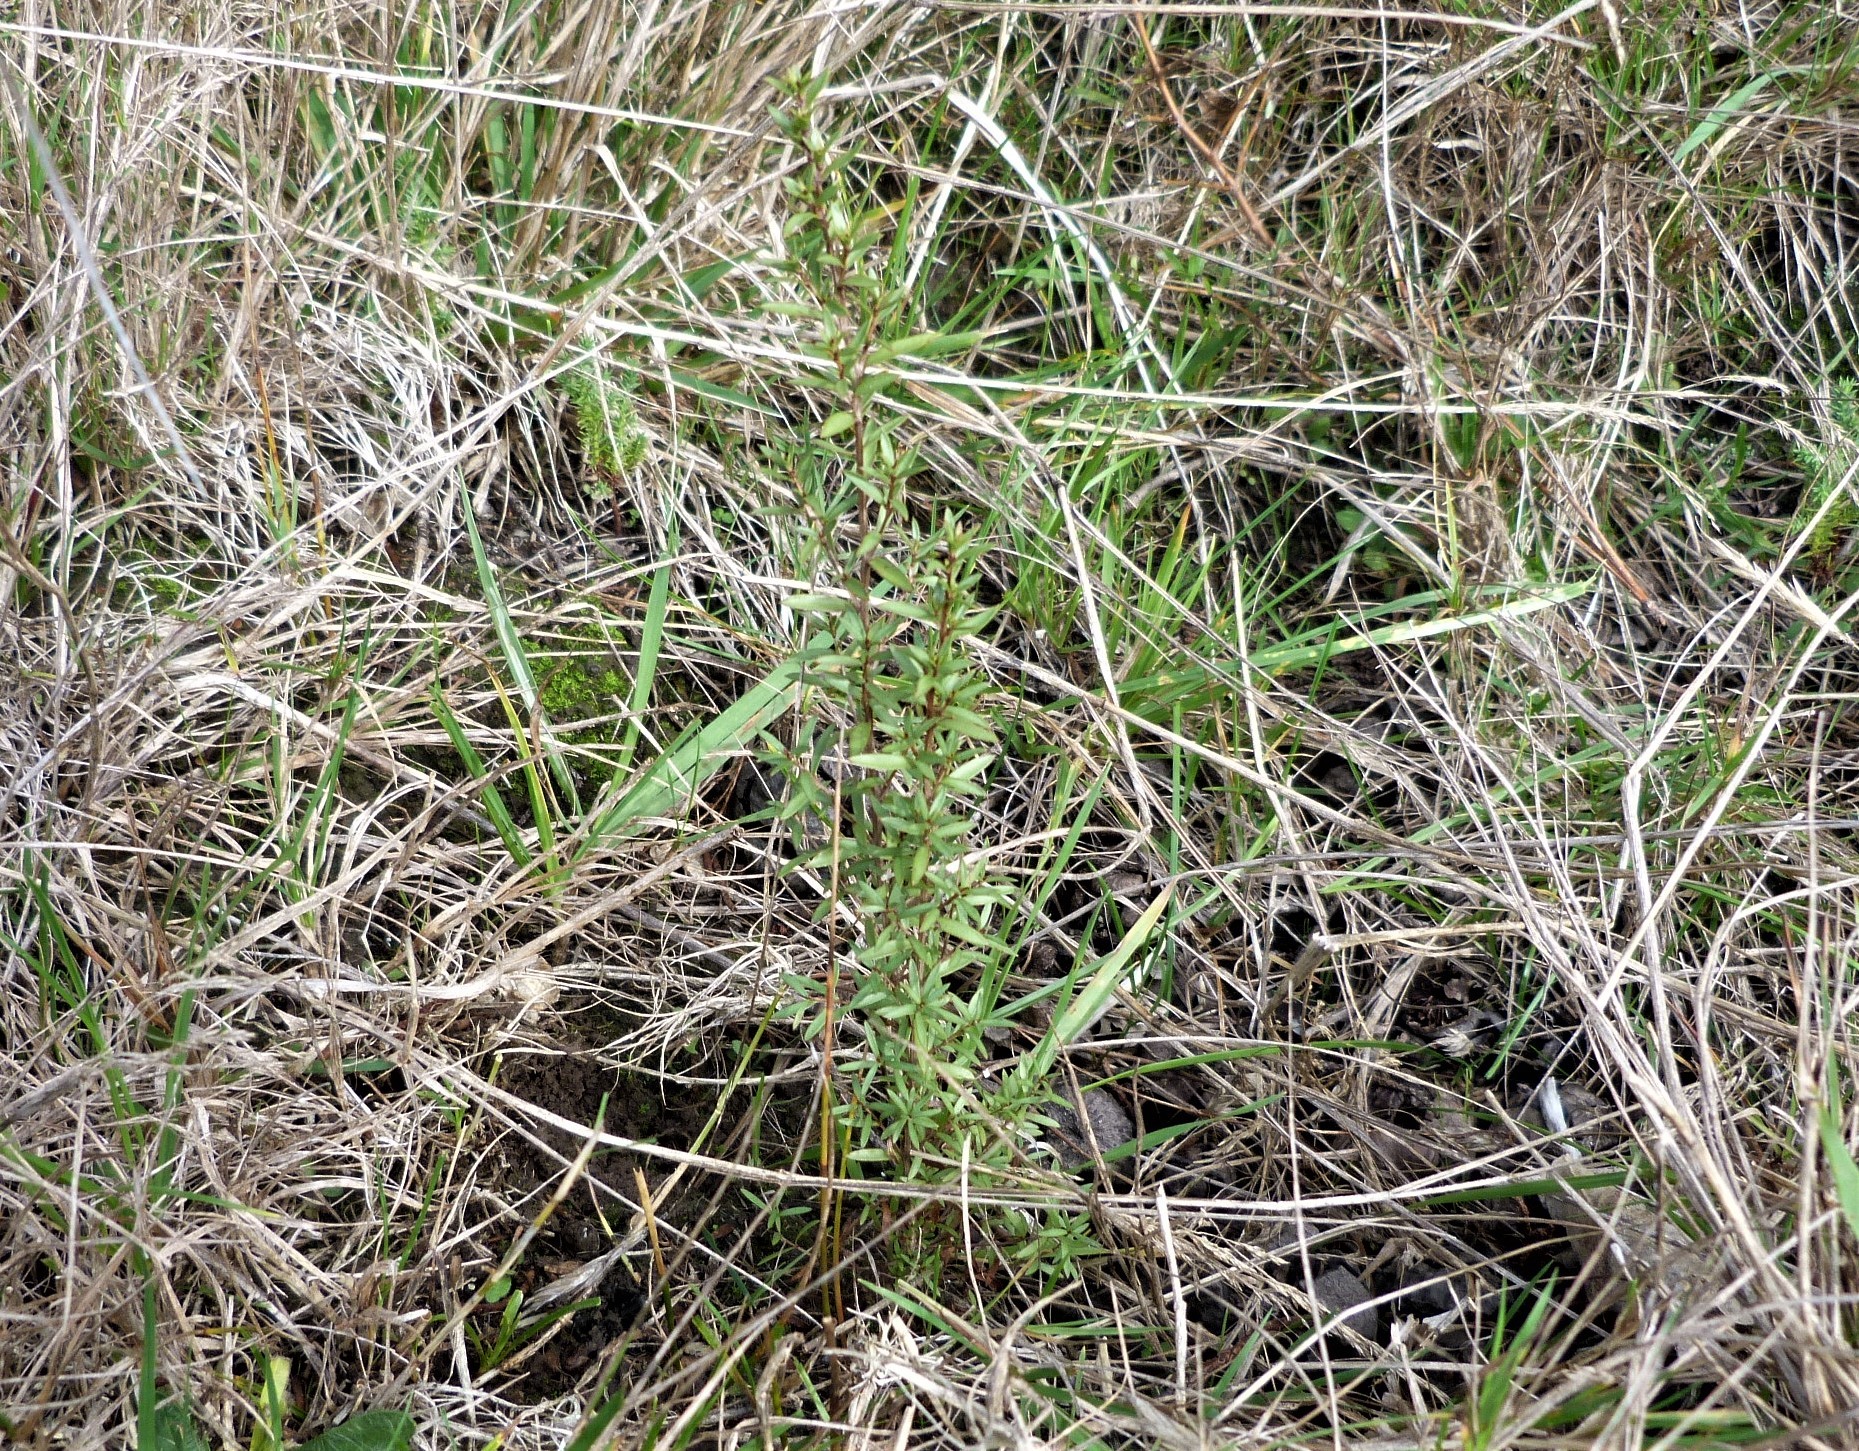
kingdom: Plantae
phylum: Tracheophyta
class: Magnoliopsida
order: Myrtales
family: Myrtaceae
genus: Leptospermum
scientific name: Leptospermum scoparium
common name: Broom tea-tree
